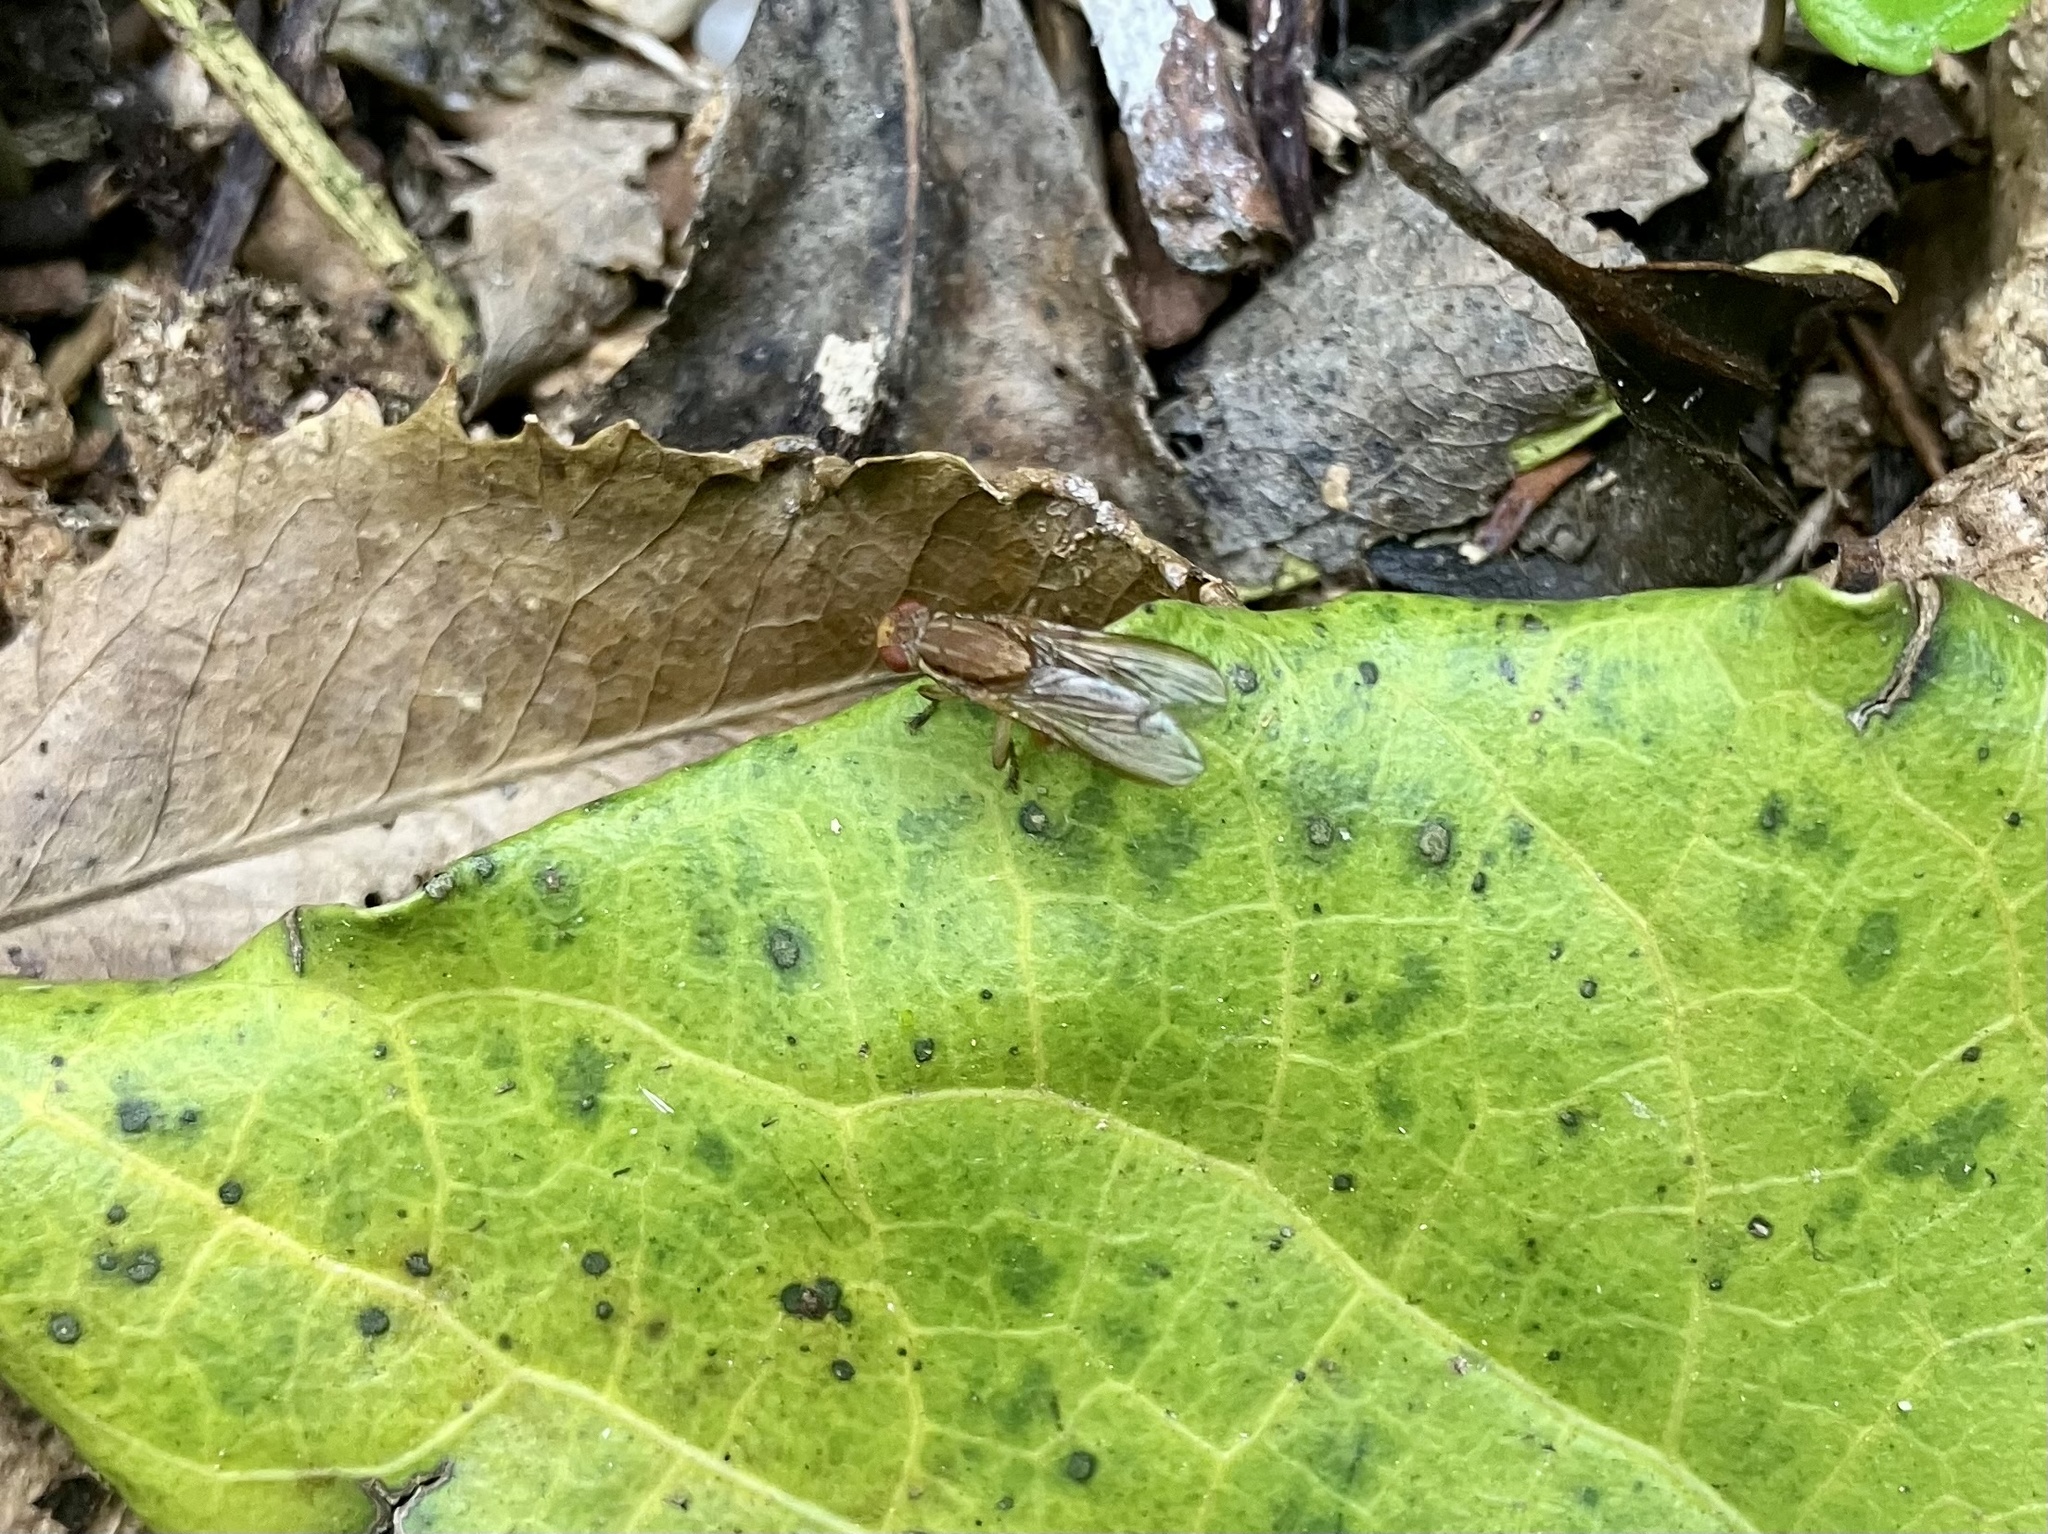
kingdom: Animalia
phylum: Arthropoda
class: Insecta
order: Diptera
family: Helosciomyzidae
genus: Napaeosciomyza
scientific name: Napaeosciomyza spinicosta
